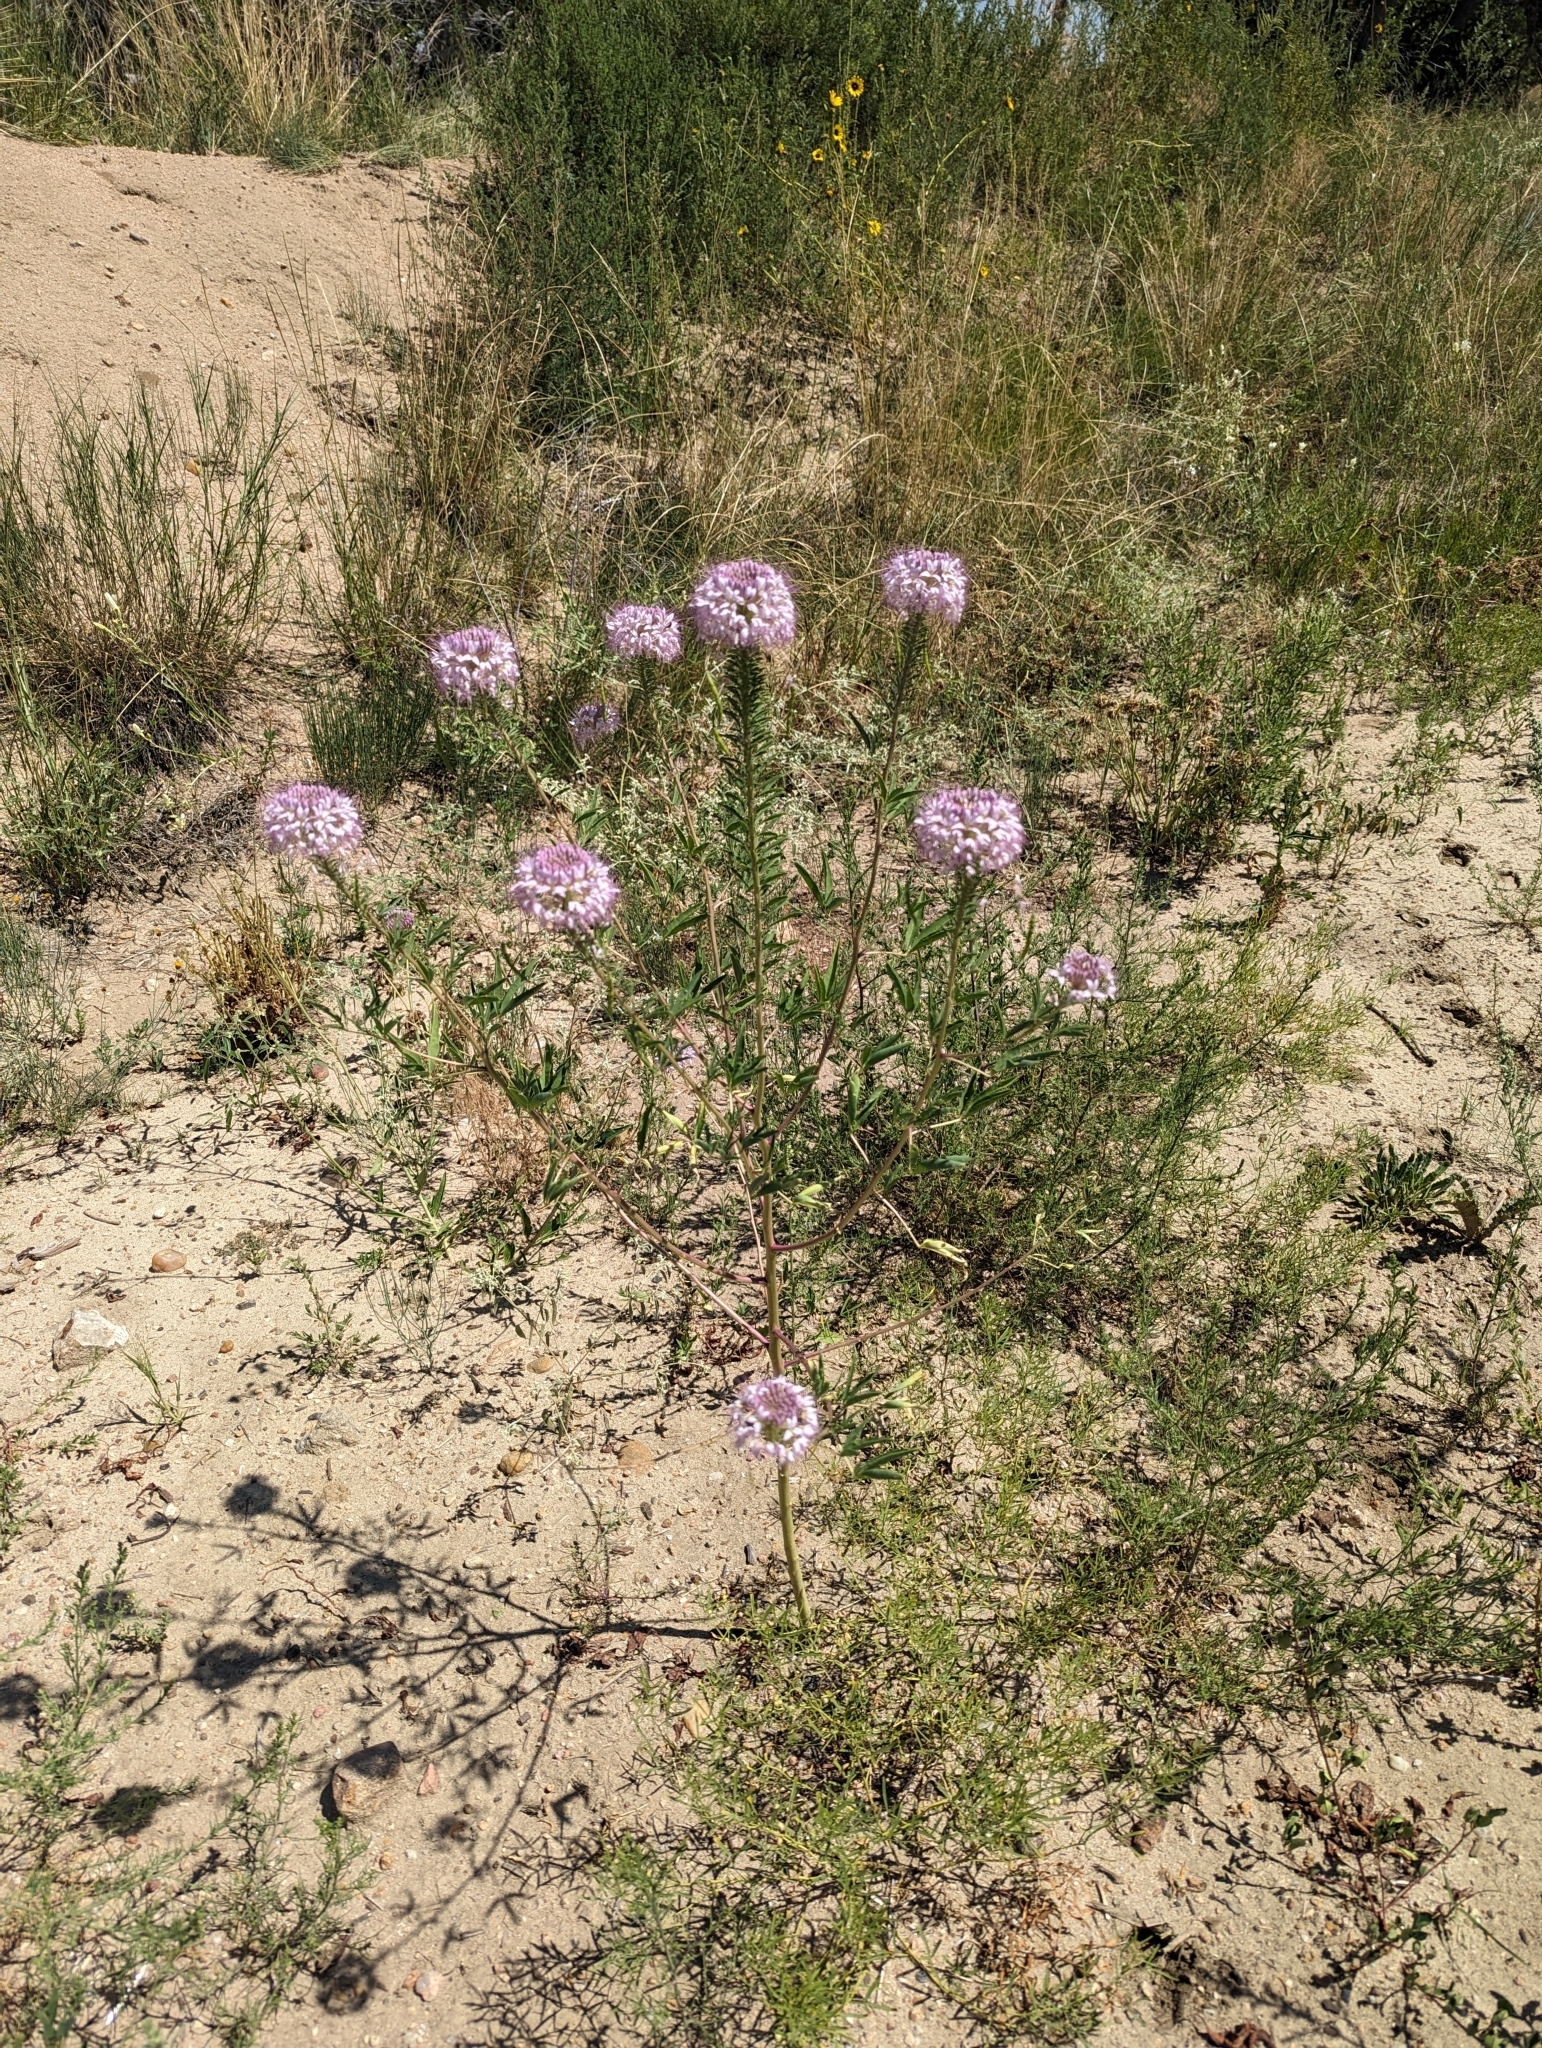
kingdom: Plantae
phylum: Tracheophyta
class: Magnoliopsida
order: Brassicales
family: Cleomaceae
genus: Cleomella
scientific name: Cleomella serrulata
